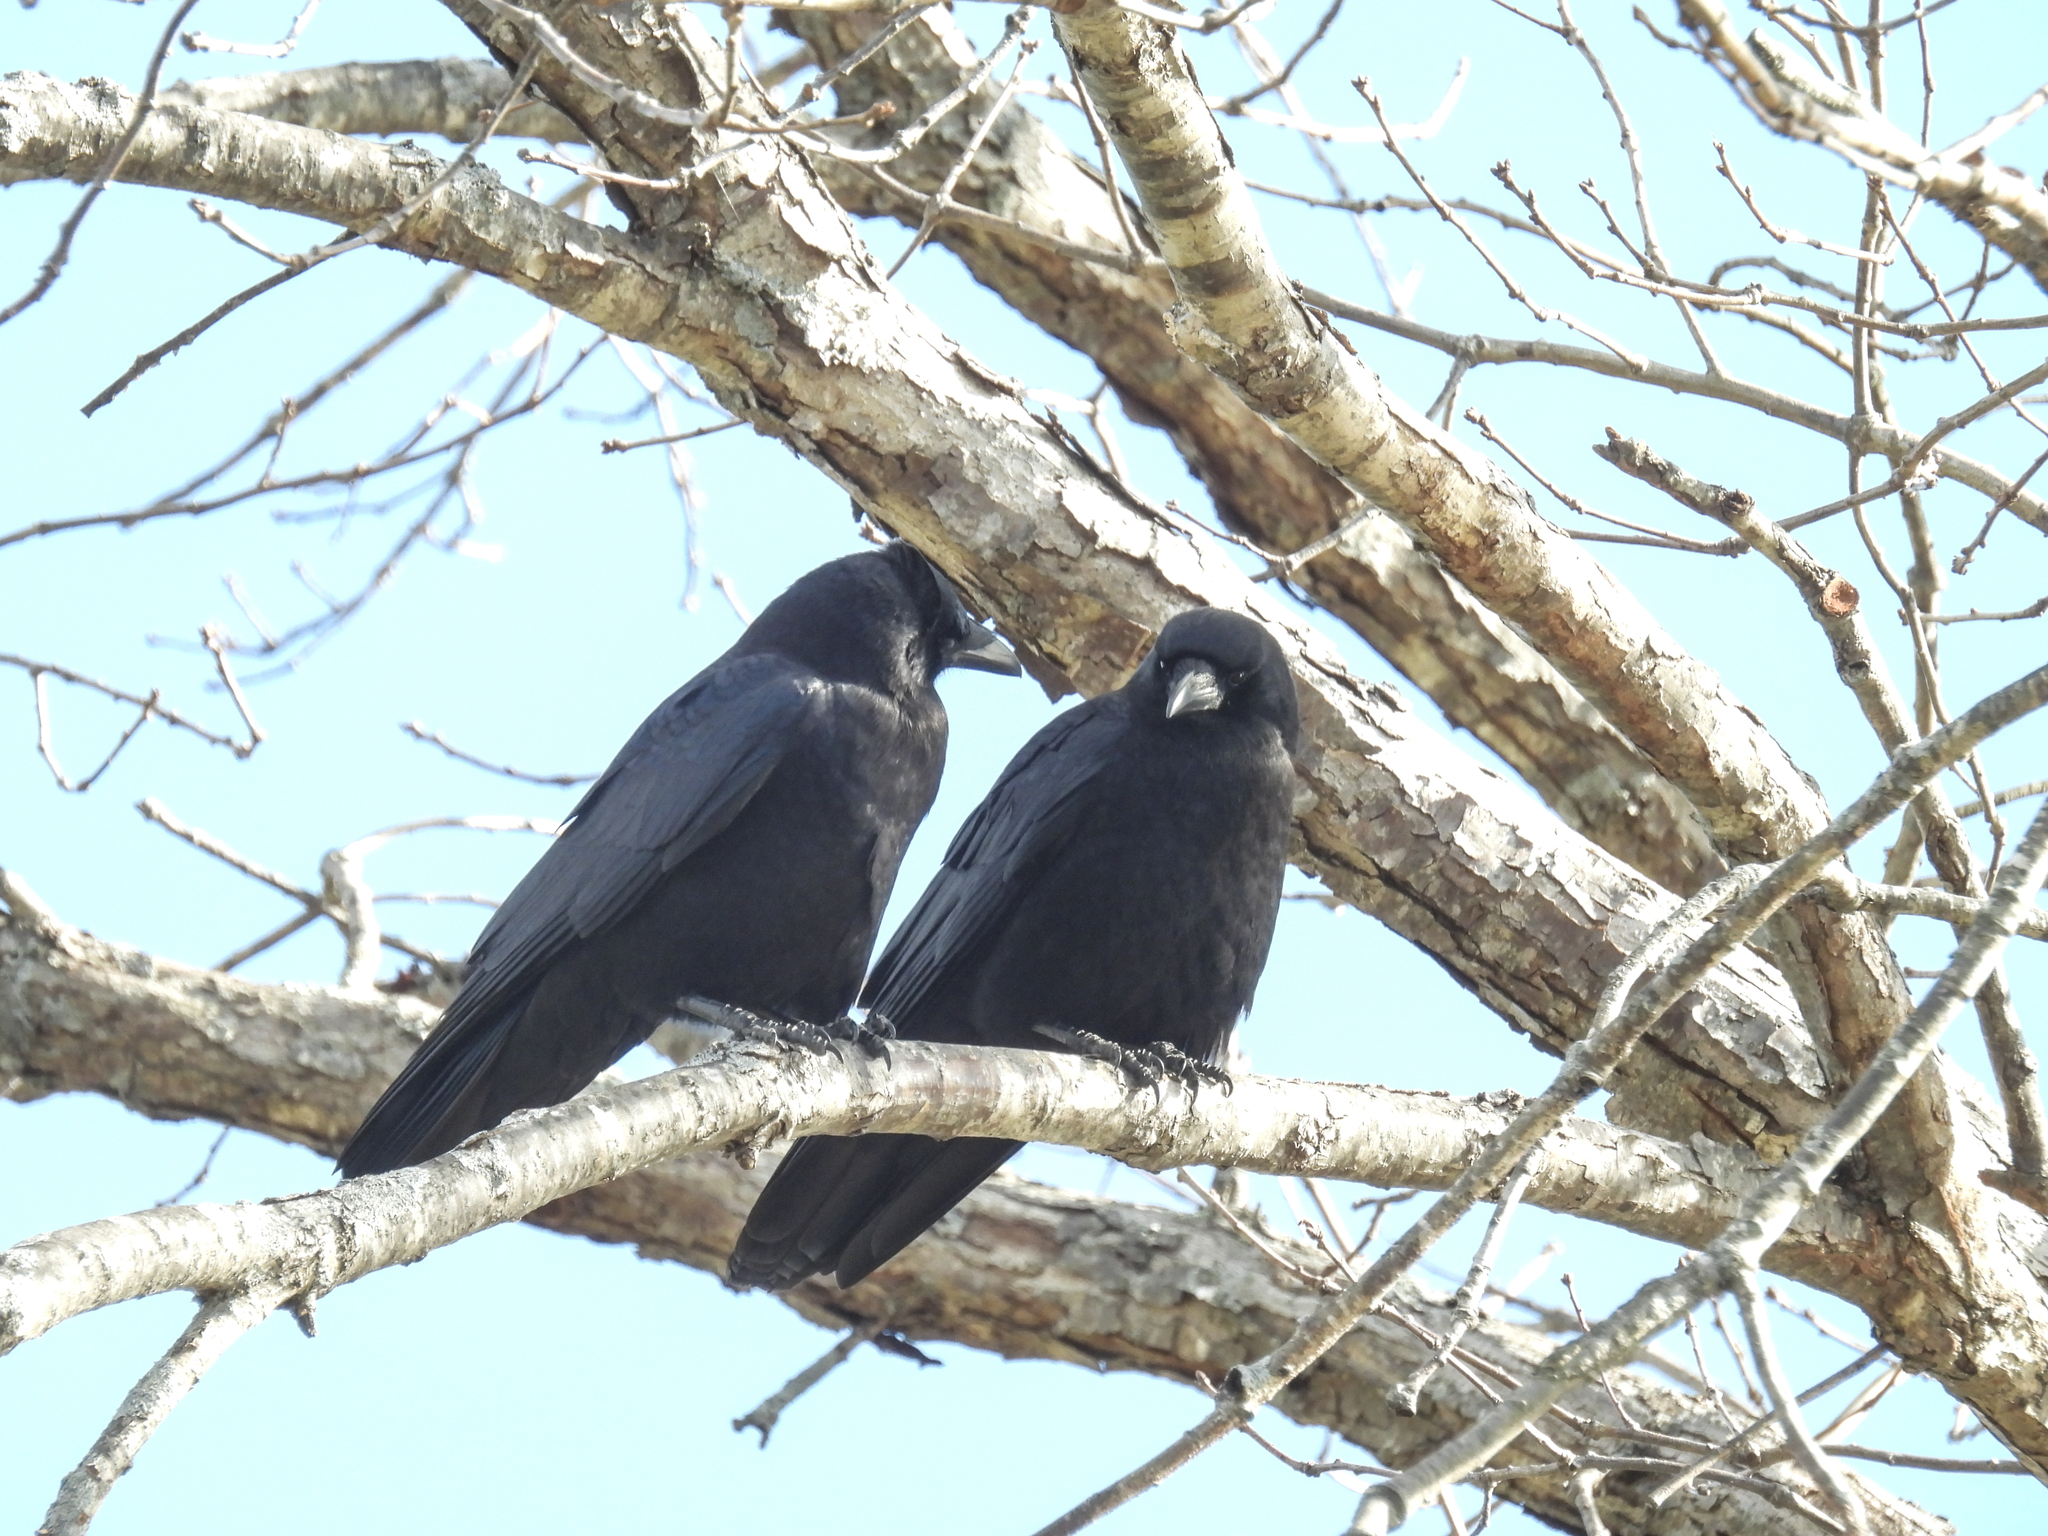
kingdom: Animalia
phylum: Chordata
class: Aves
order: Passeriformes
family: Corvidae
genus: Corvus
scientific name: Corvus brachyrhynchos
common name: American crow
